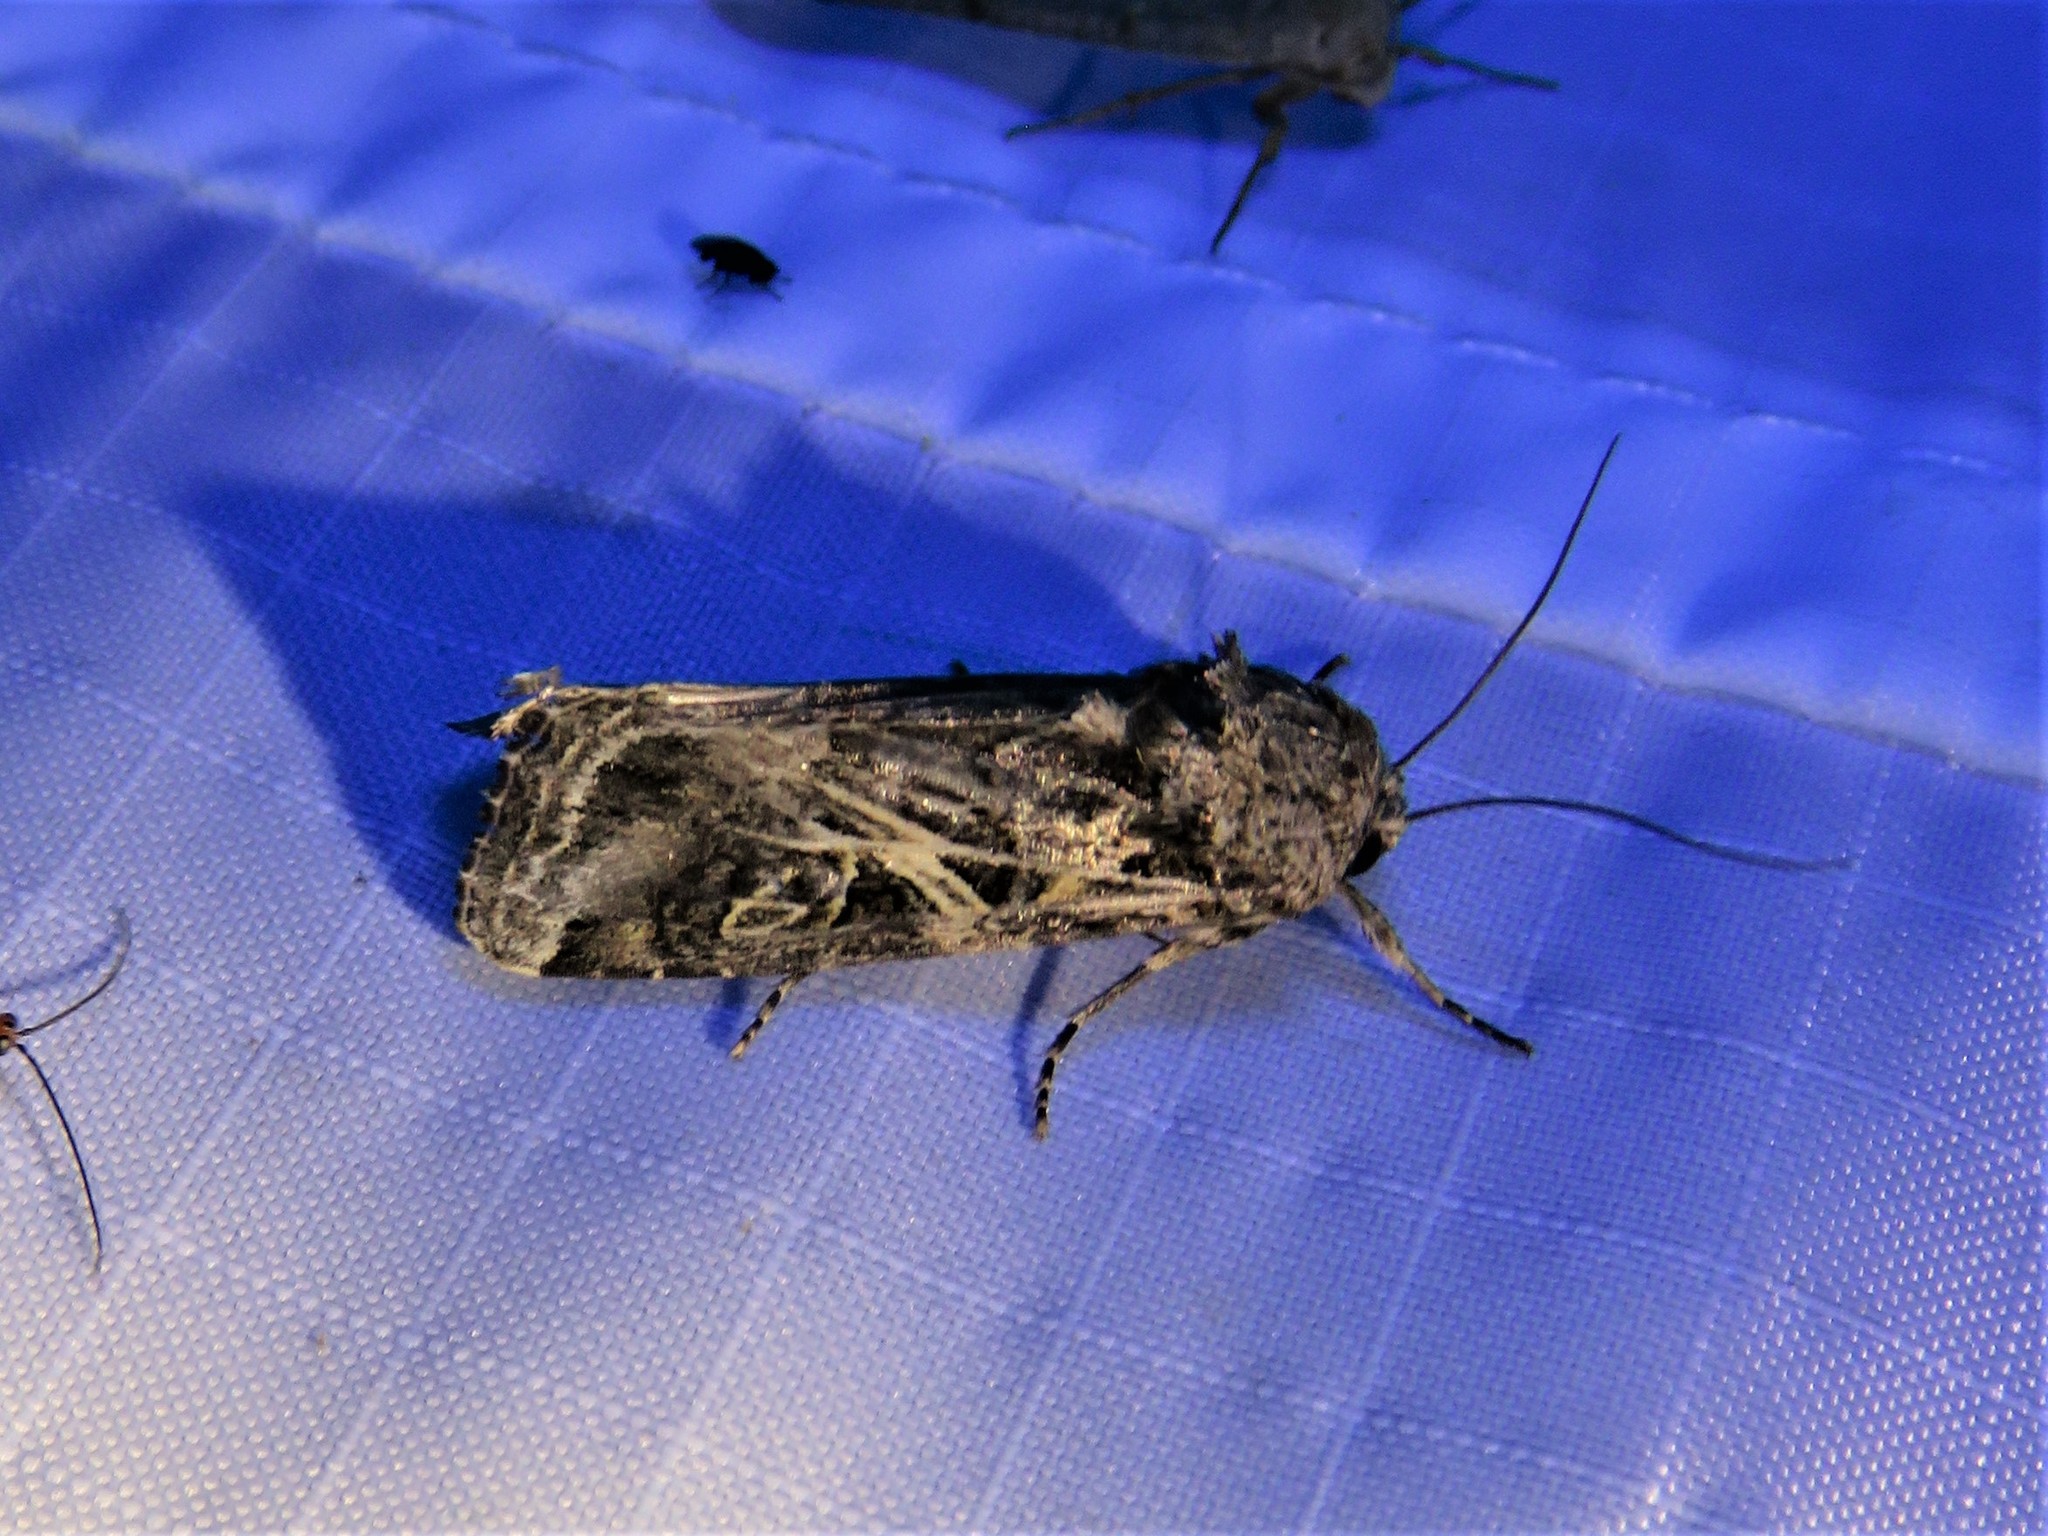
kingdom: Animalia
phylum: Arthropoda
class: Insecta
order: Lepidoptera
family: Noctuidae
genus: Spodoptera
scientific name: Spodoptera ornithogalli
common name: Yellow-striped armyworm
